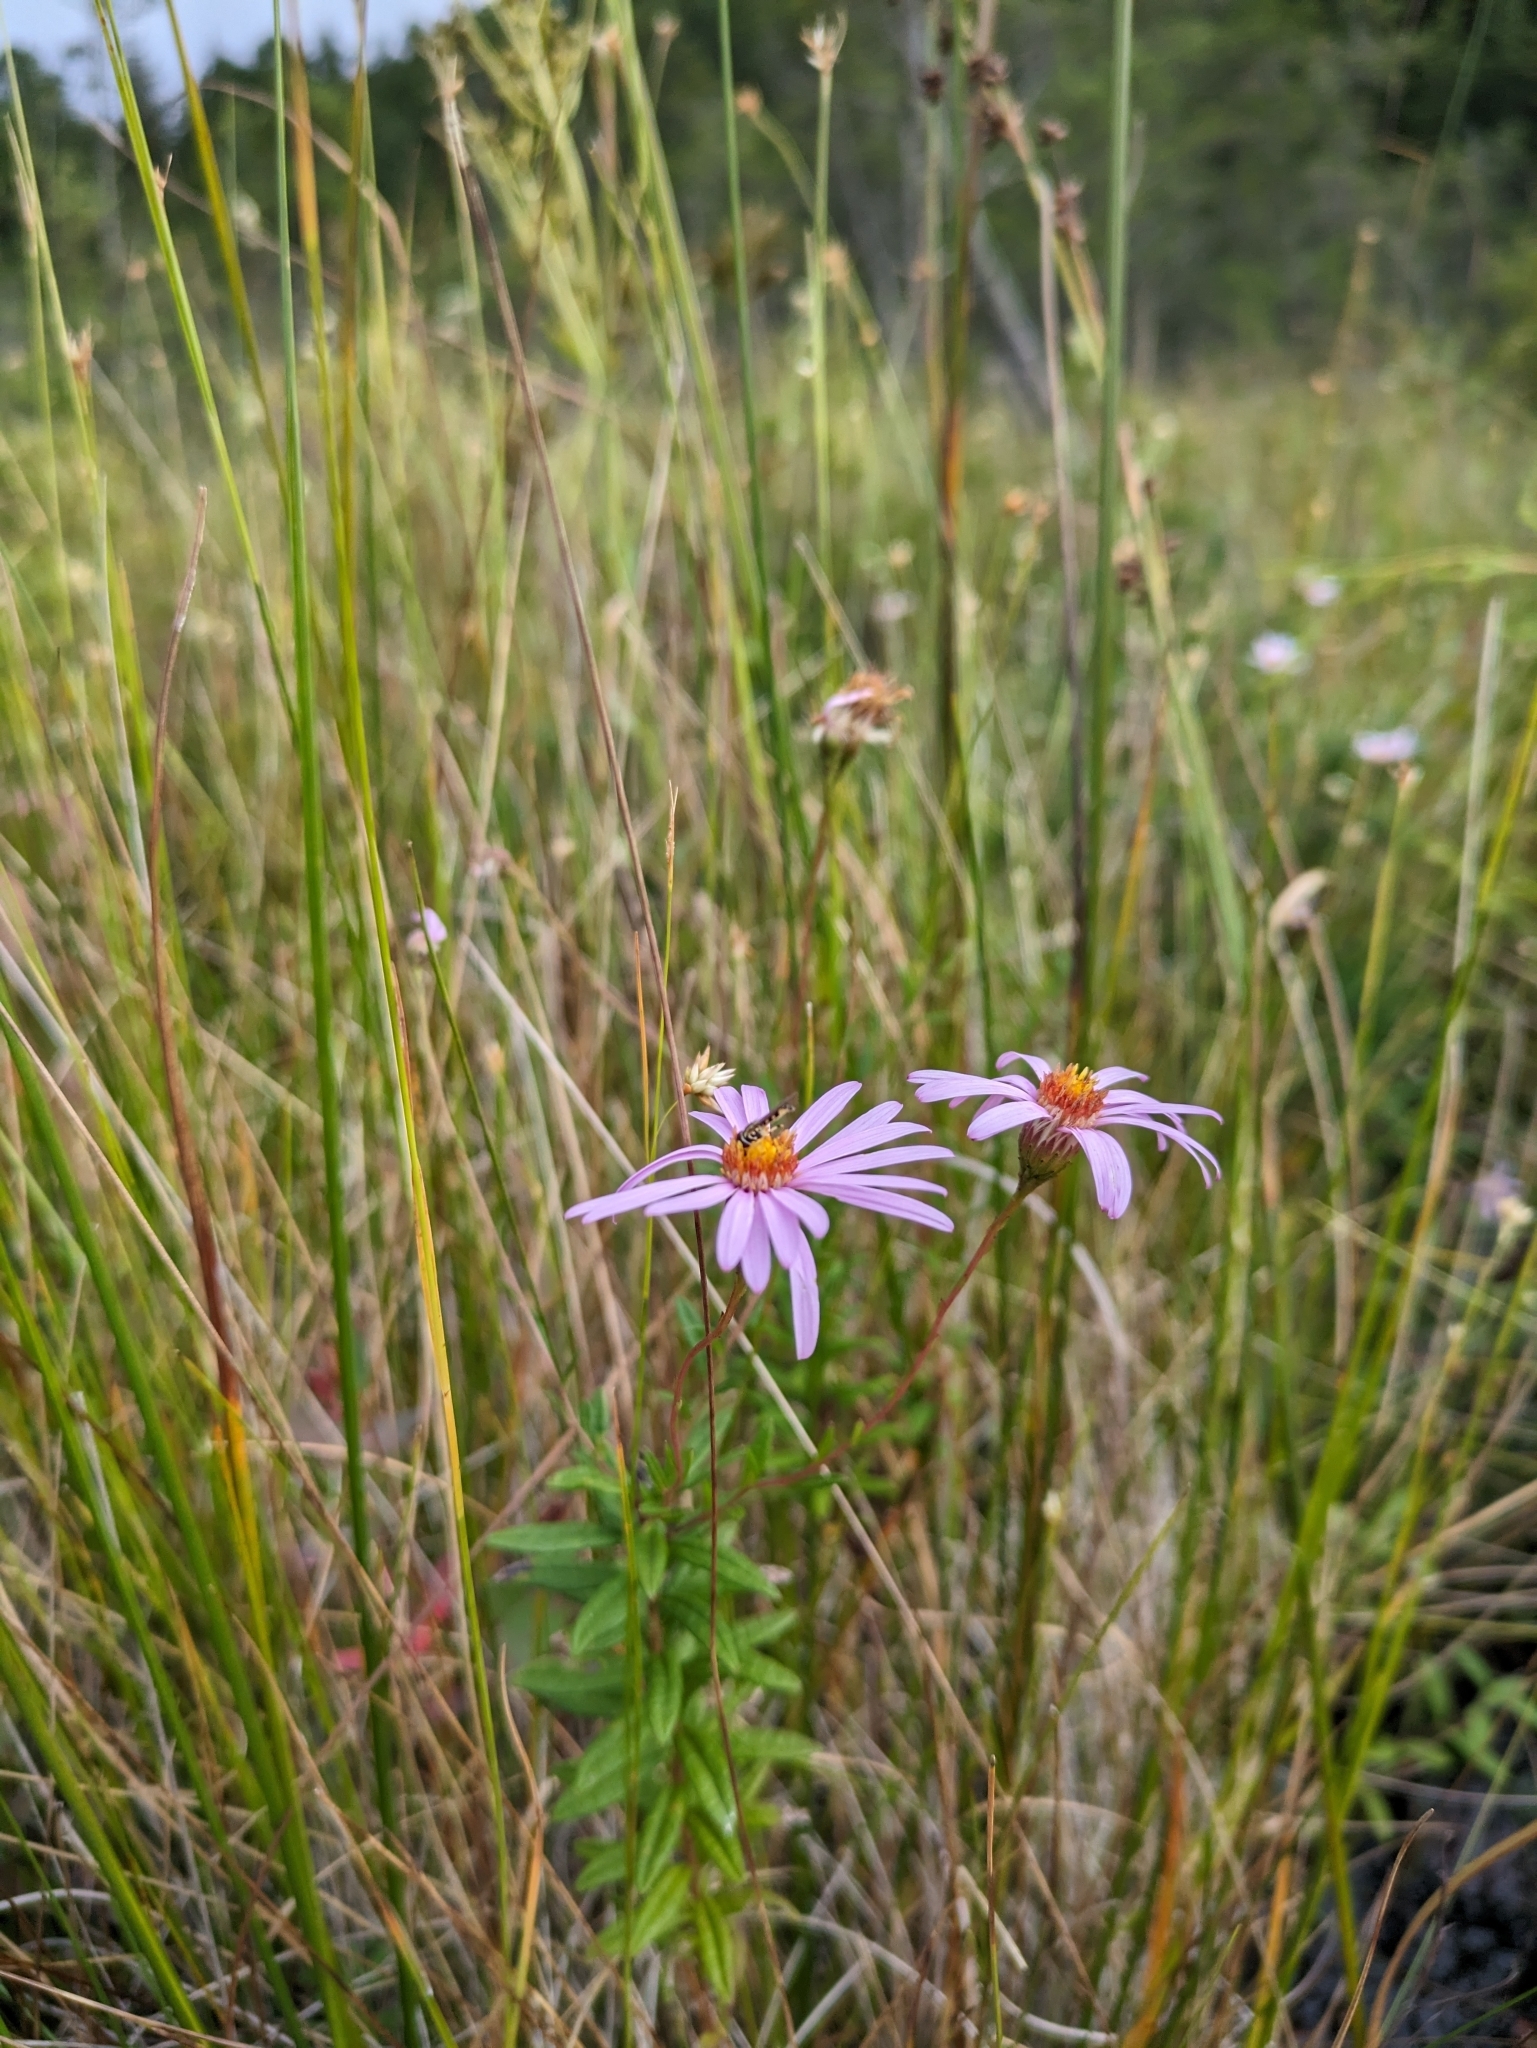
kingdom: Plantae
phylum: Tracheophyta
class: Magnoliopsida
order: Asterales
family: Asteraceae
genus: Oclemena
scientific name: Oclemena nemoralis
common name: Bog aster
